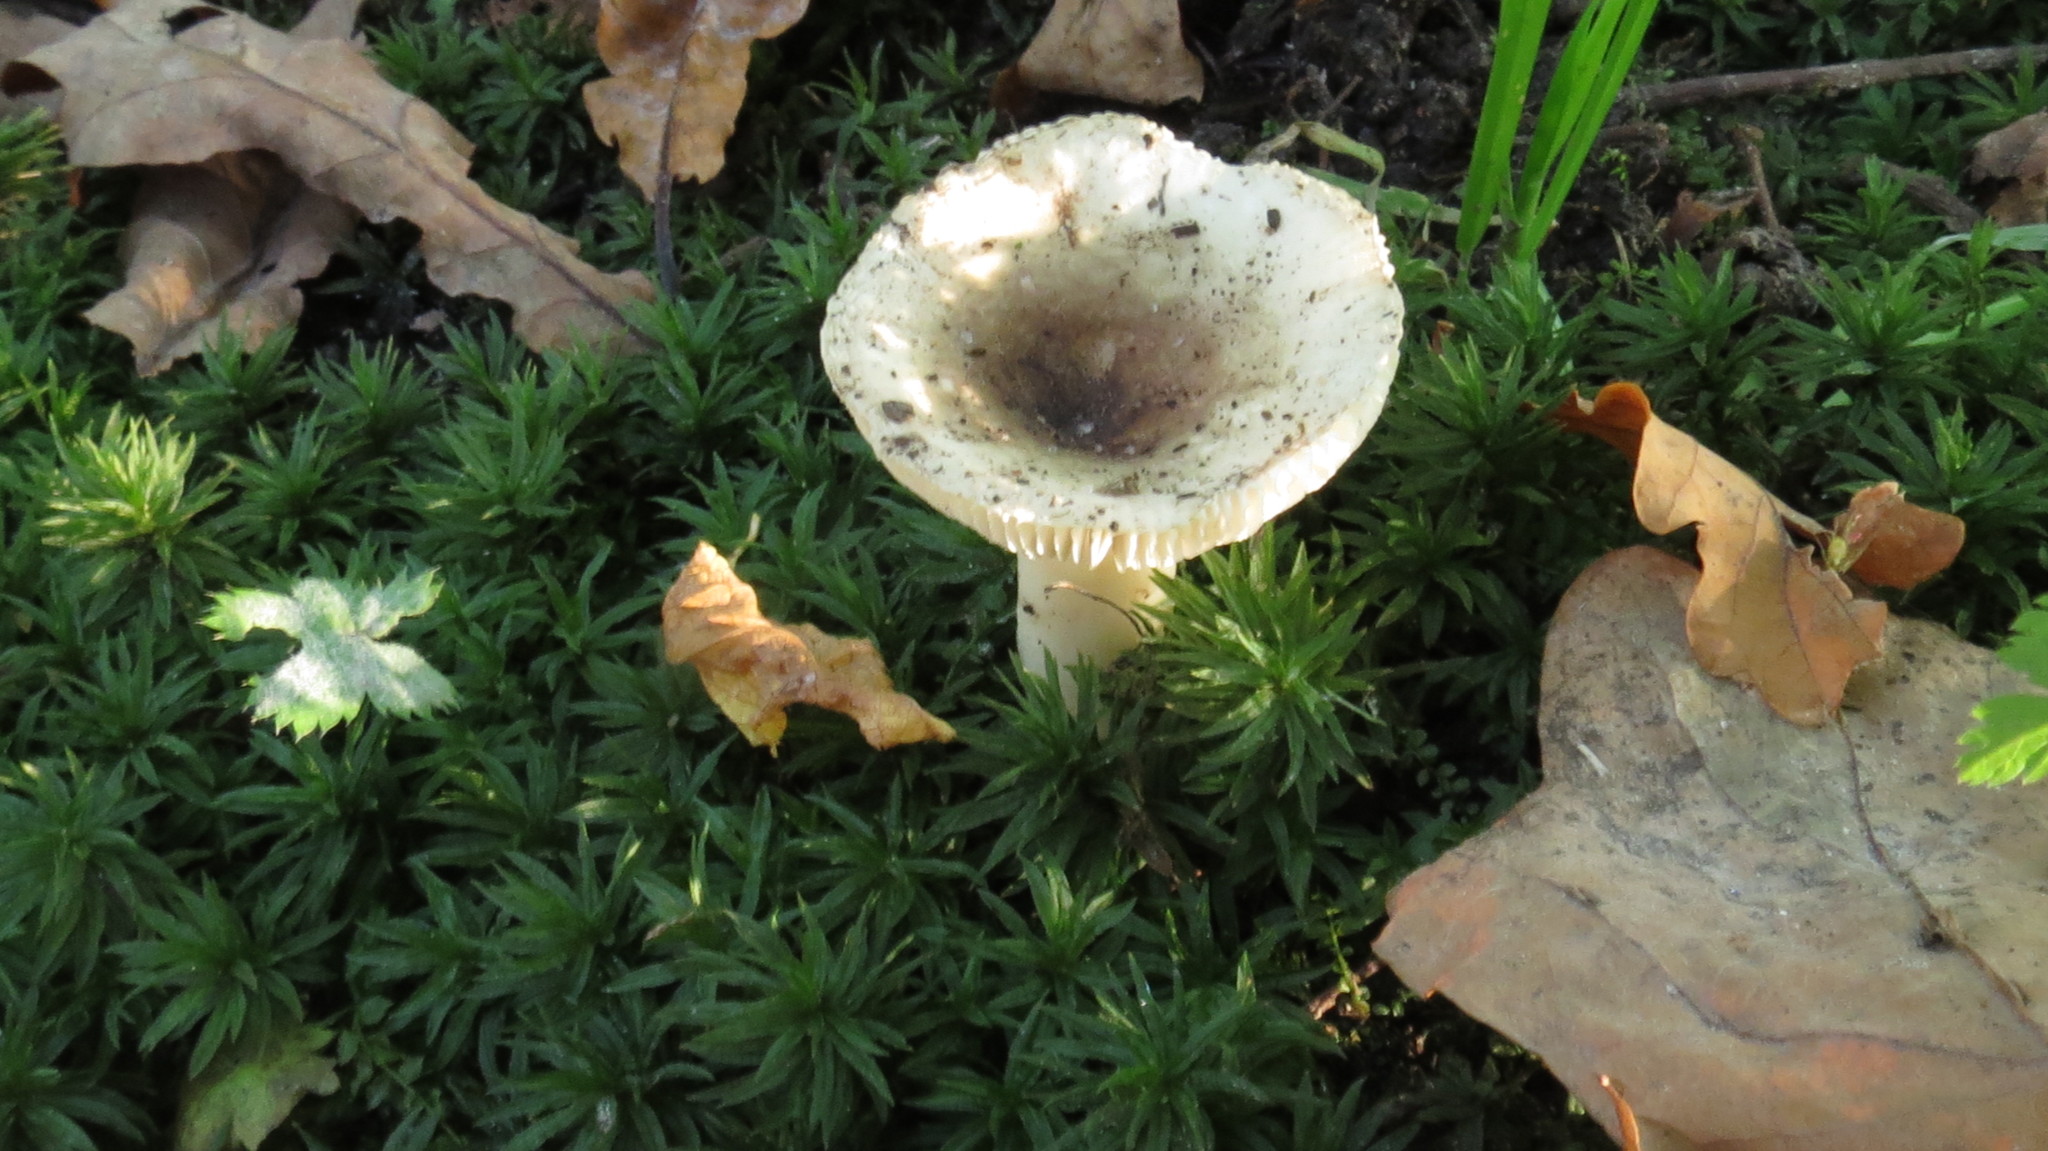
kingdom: Fungi
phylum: Basidiomycota
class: Agaricomycetes
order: Russulales
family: Russulaceae
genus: Russula
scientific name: Russula
